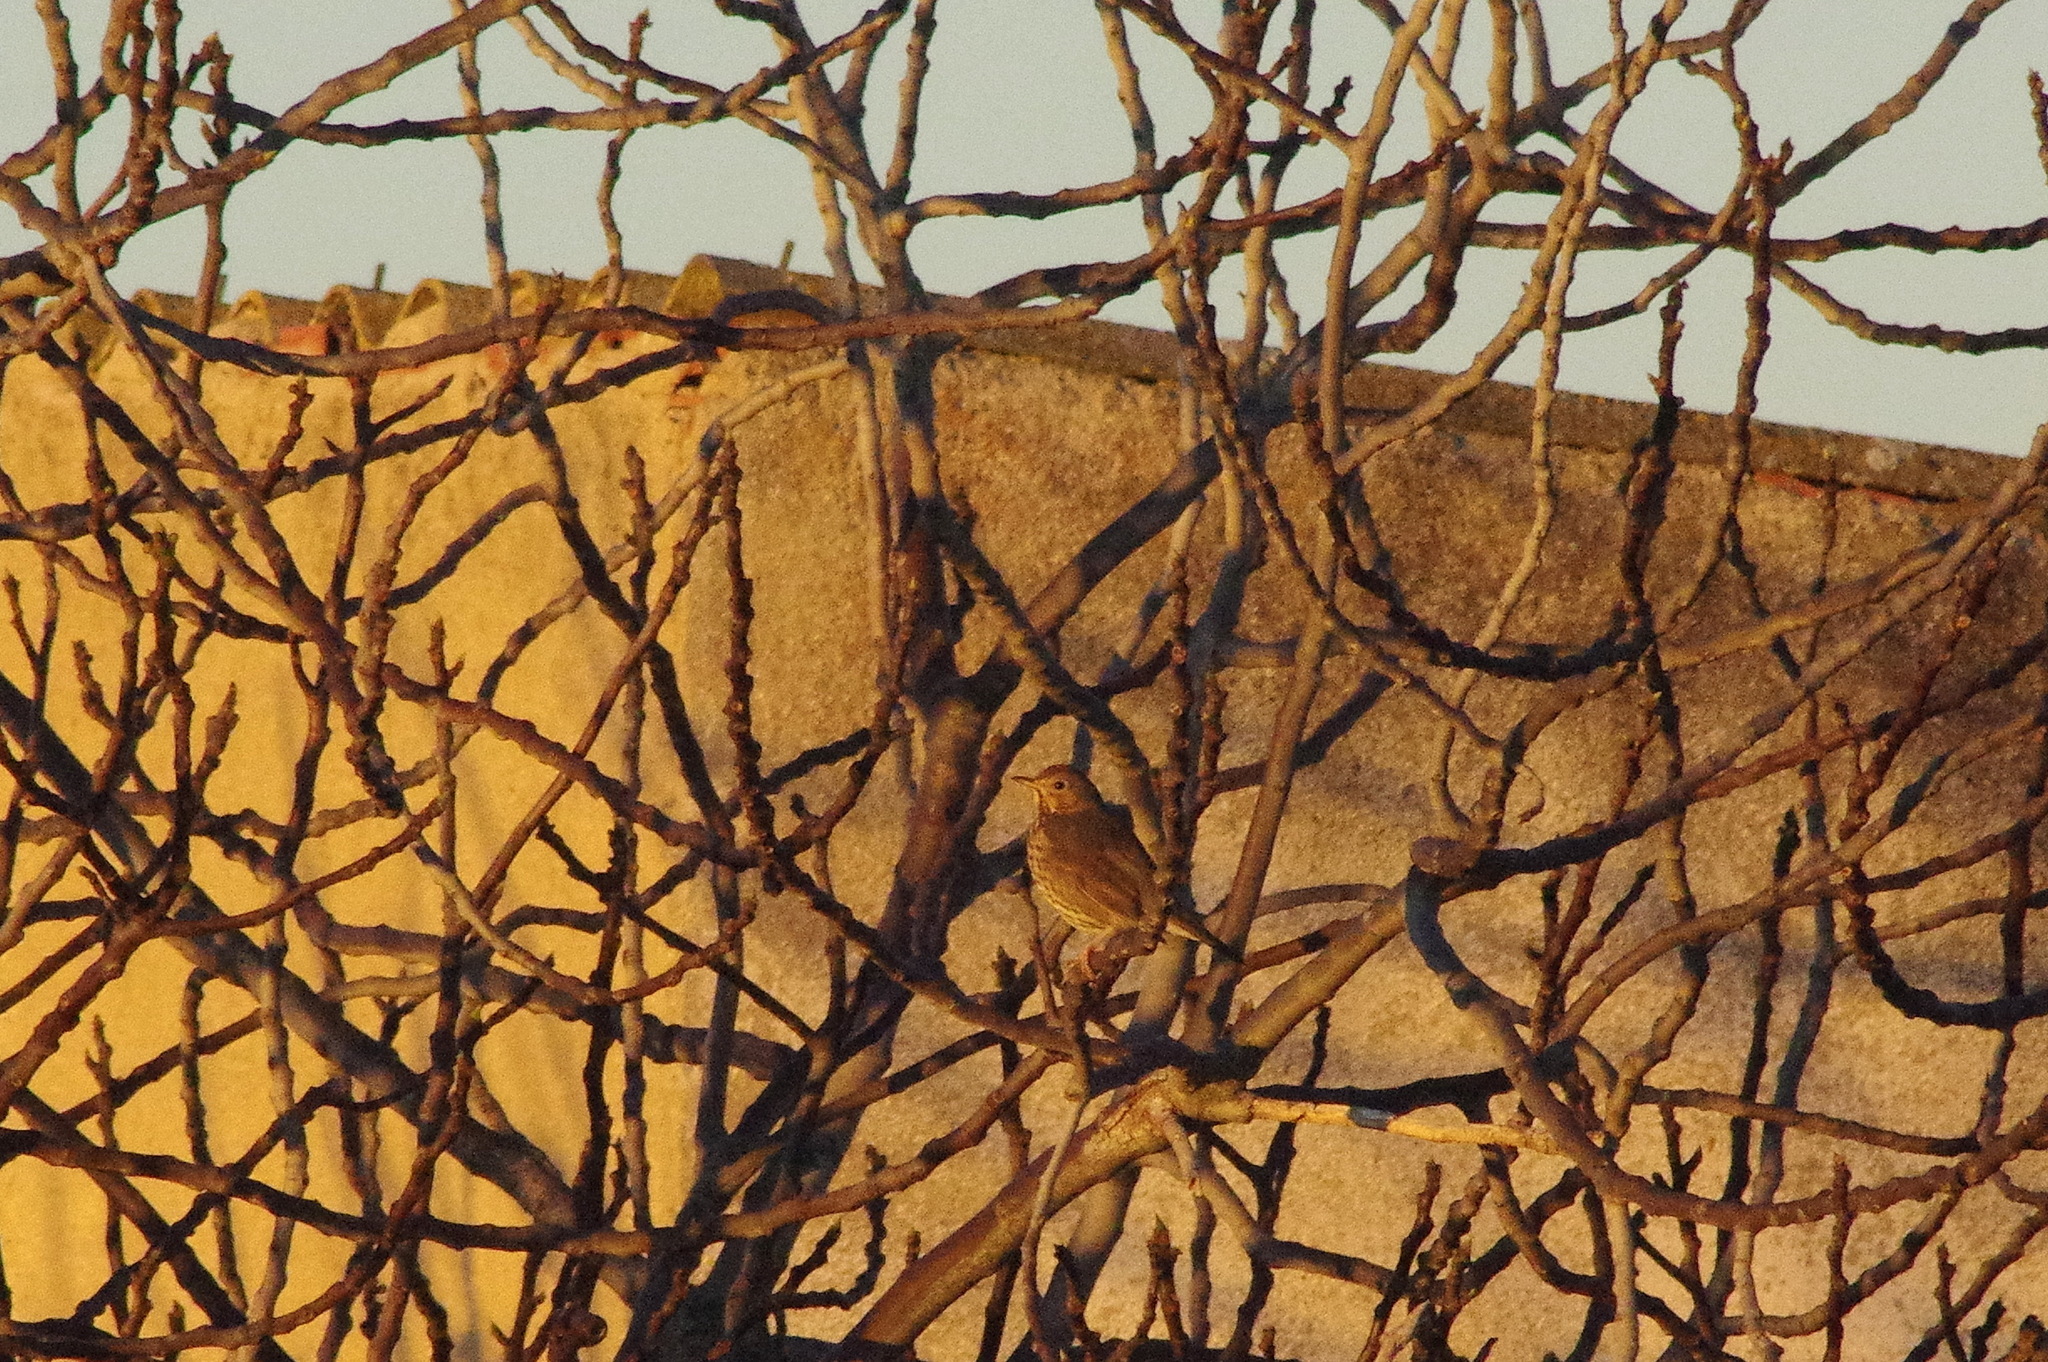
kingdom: Animalia
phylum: Chordata
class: Aves
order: Passeriformes
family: Turdidae
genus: Turdus
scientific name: Turdus philomelos
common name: Song thrush
